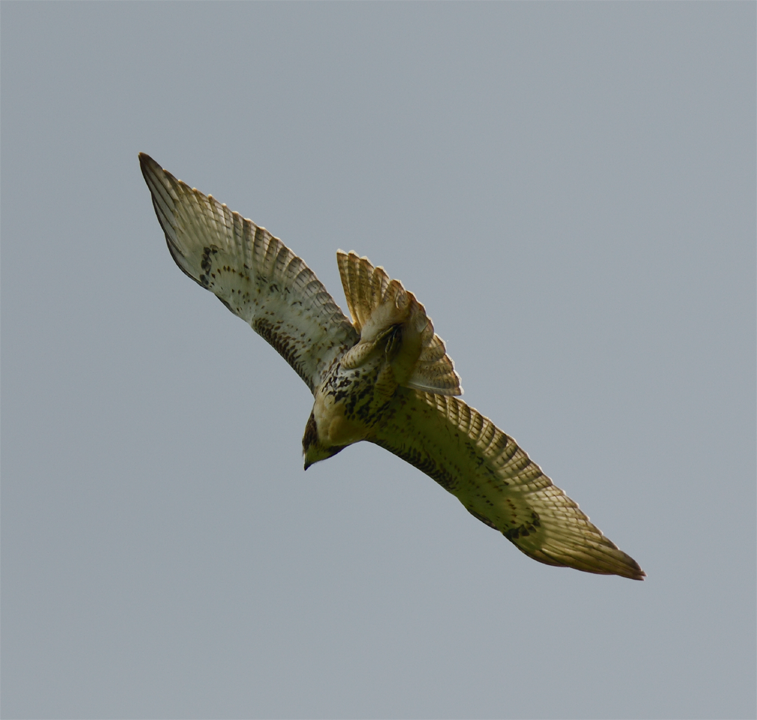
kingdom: Animalia
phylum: Chordata
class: Aves
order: Accipitriformes
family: Accipitridae
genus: Buteo
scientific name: Buteo jamaicensis
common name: Red-tailed hawk
